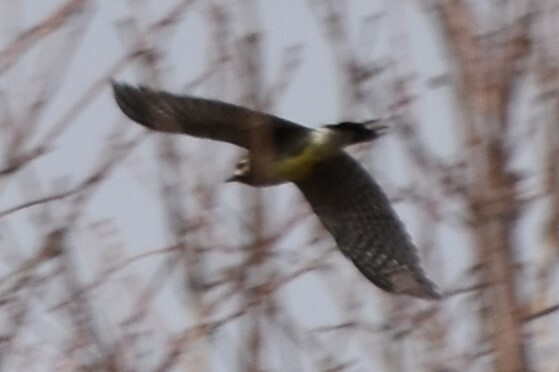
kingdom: Animalia
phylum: Chordata
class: Aves
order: Piciformes
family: Picidae
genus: Sphyrapicus
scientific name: Sphyrapicus varius
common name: Yellow-bellied sapsucker
